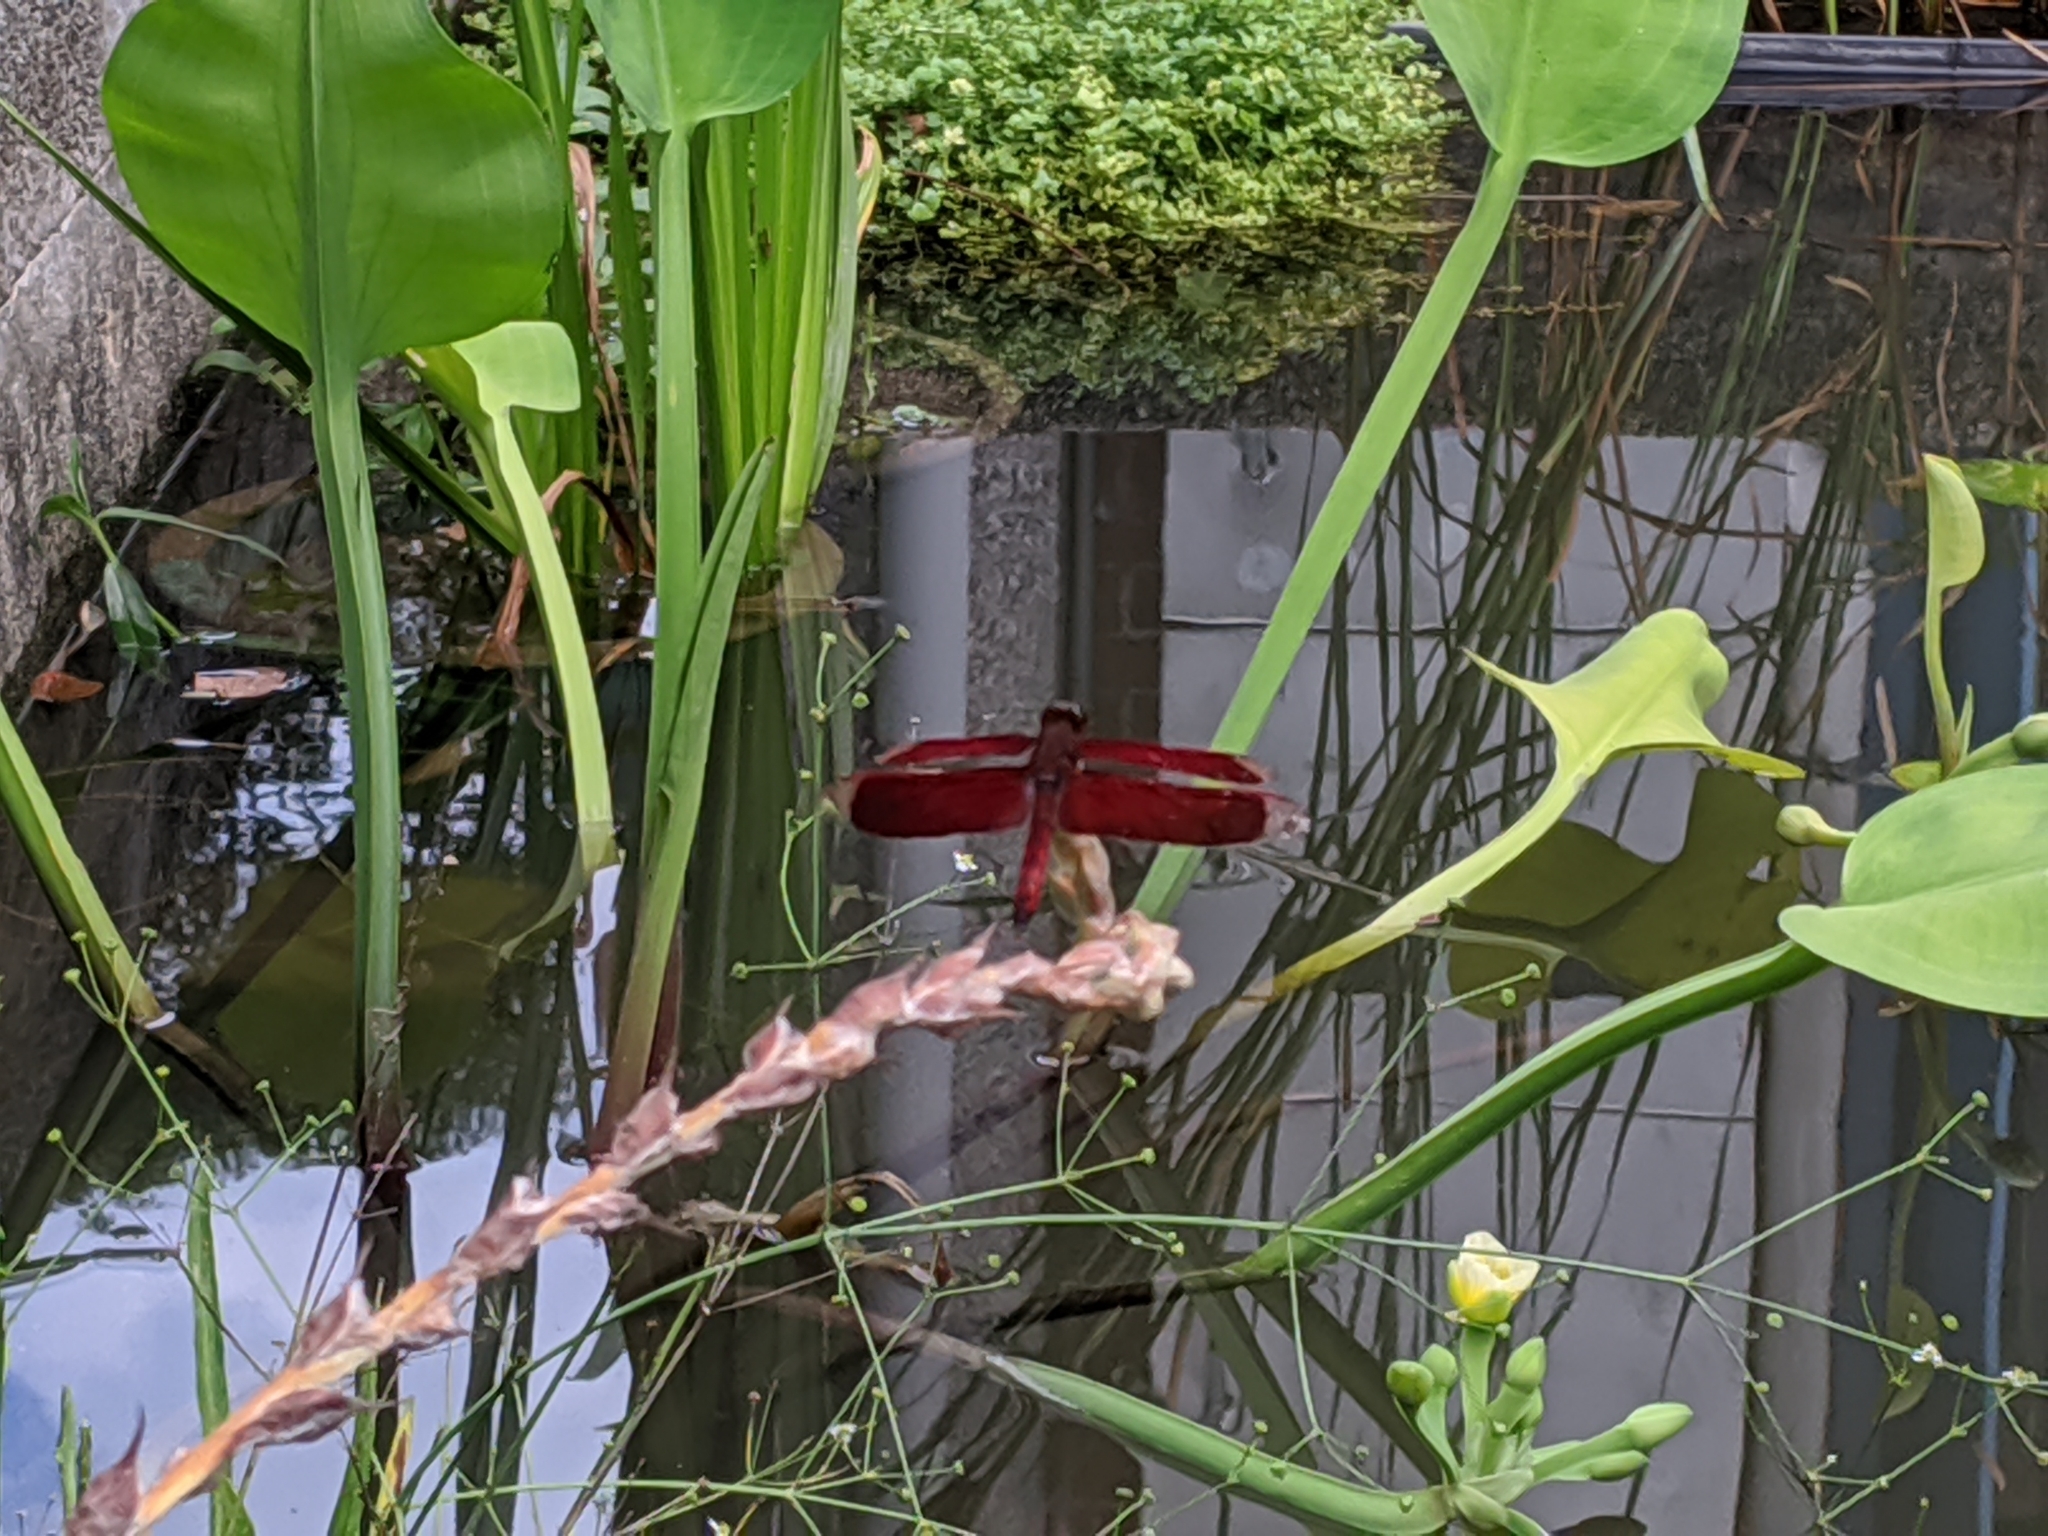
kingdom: Animalia
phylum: Arthropoda
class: Insecta
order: Odonata
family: Libellulidae
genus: Neurothemis
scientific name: Neurothemis taiwanensis
